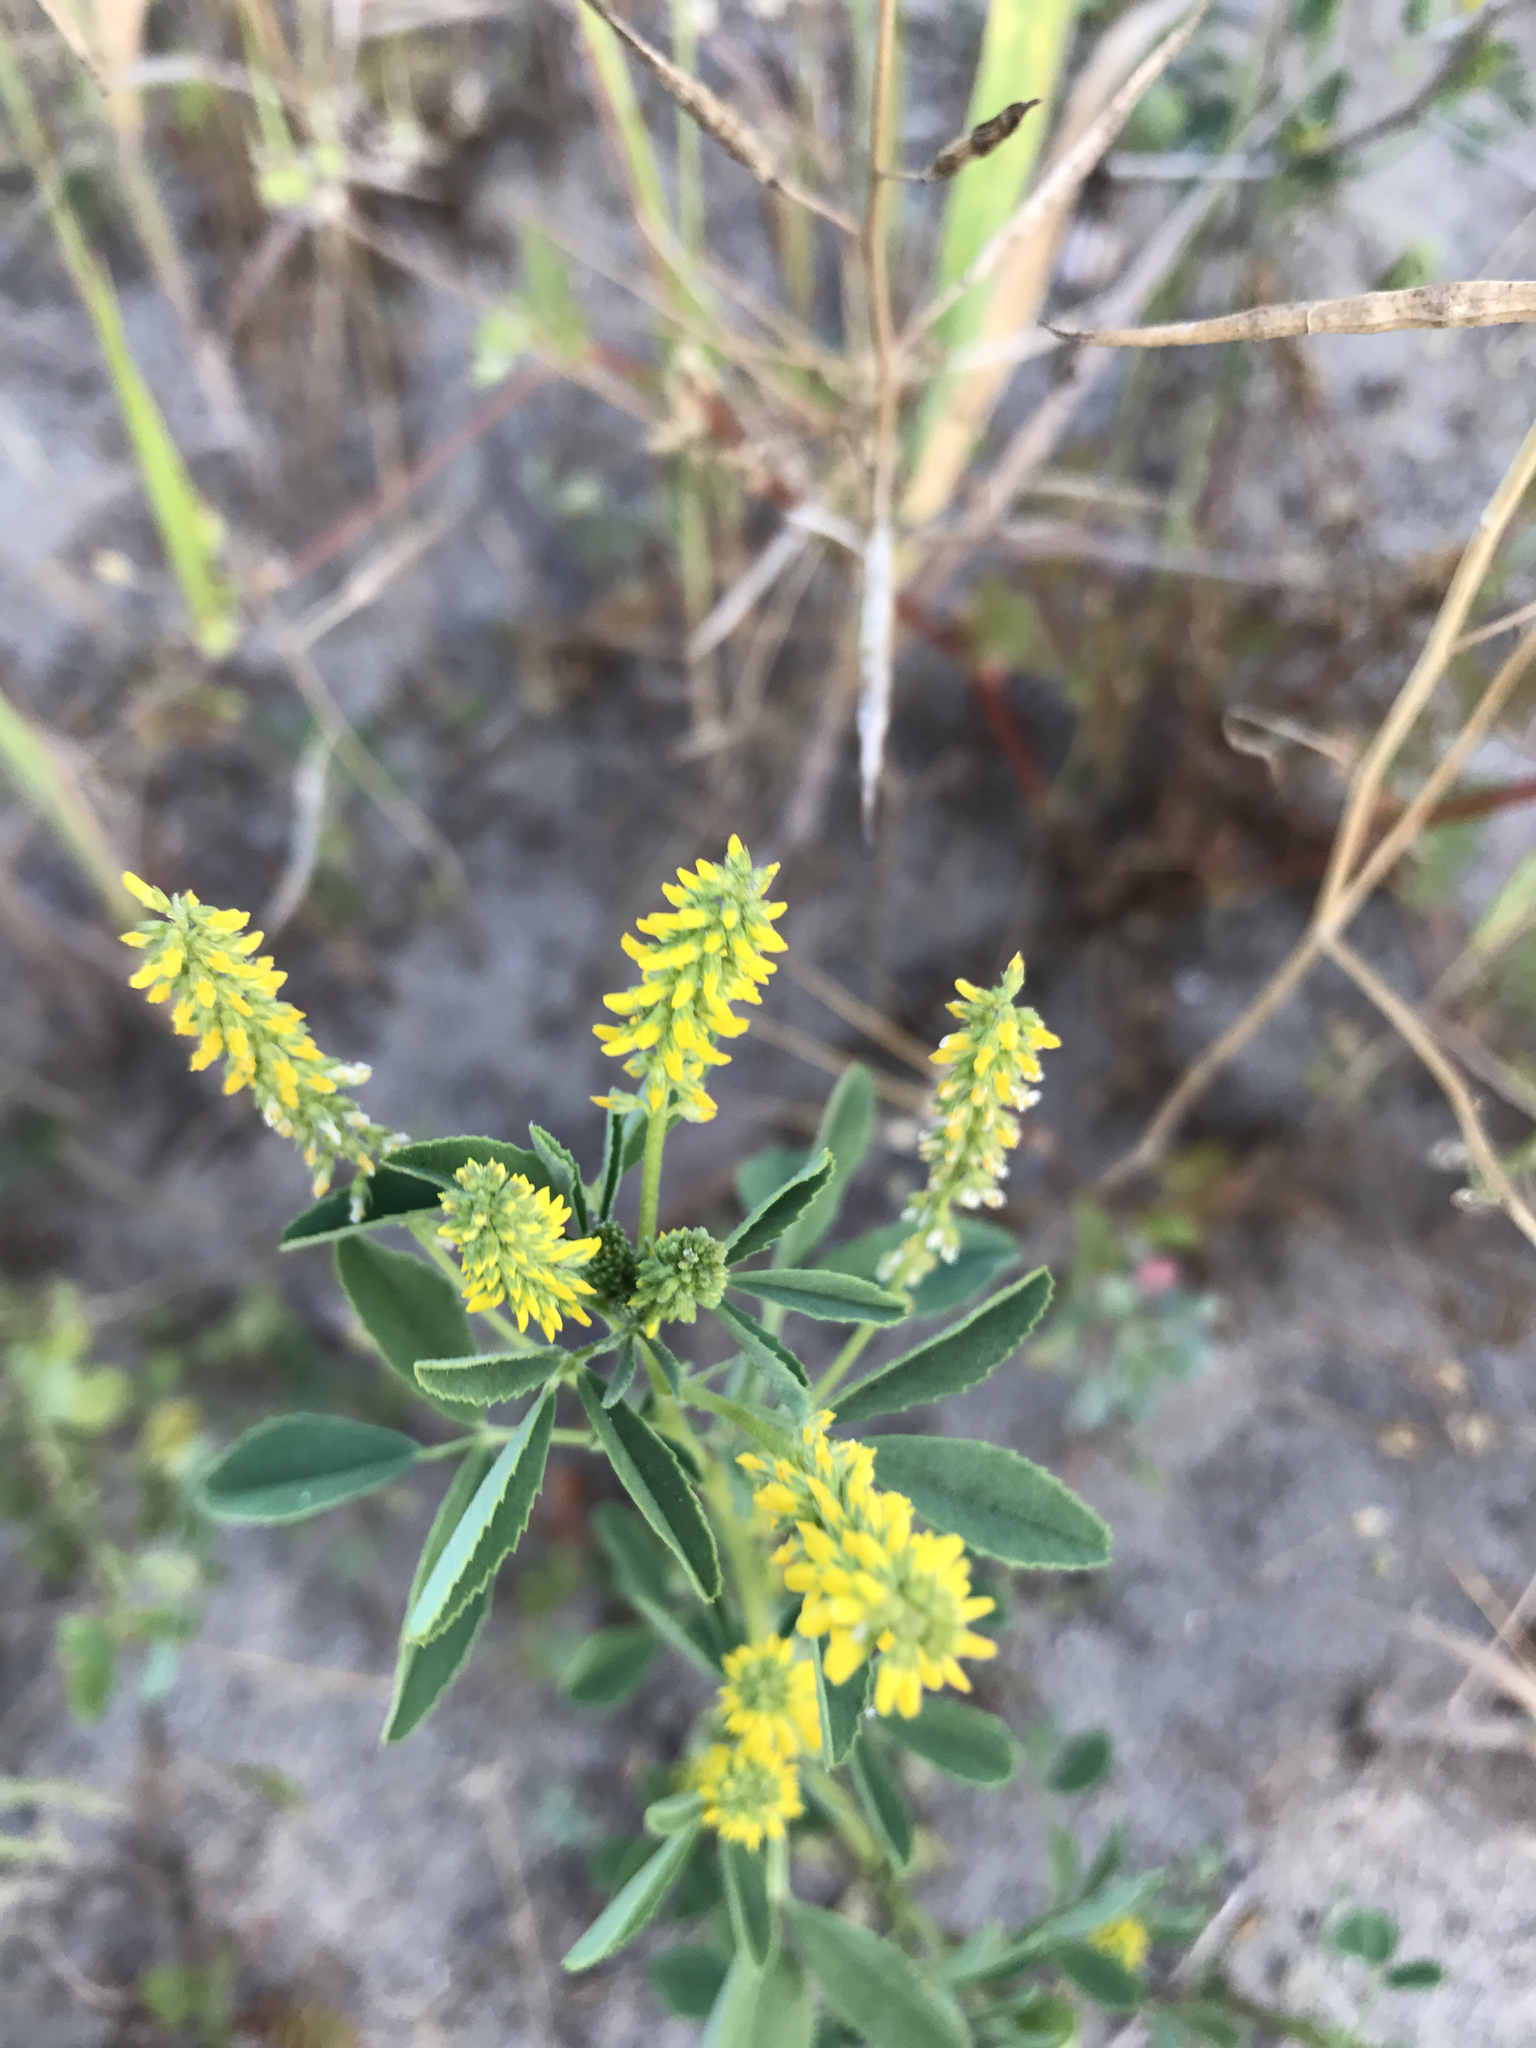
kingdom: Plantae
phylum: Tracheophyta
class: Magnoliopsida
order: Fabales
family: Fabaceae
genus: Melilotus
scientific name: Melilotus indicus
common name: Small melilot
